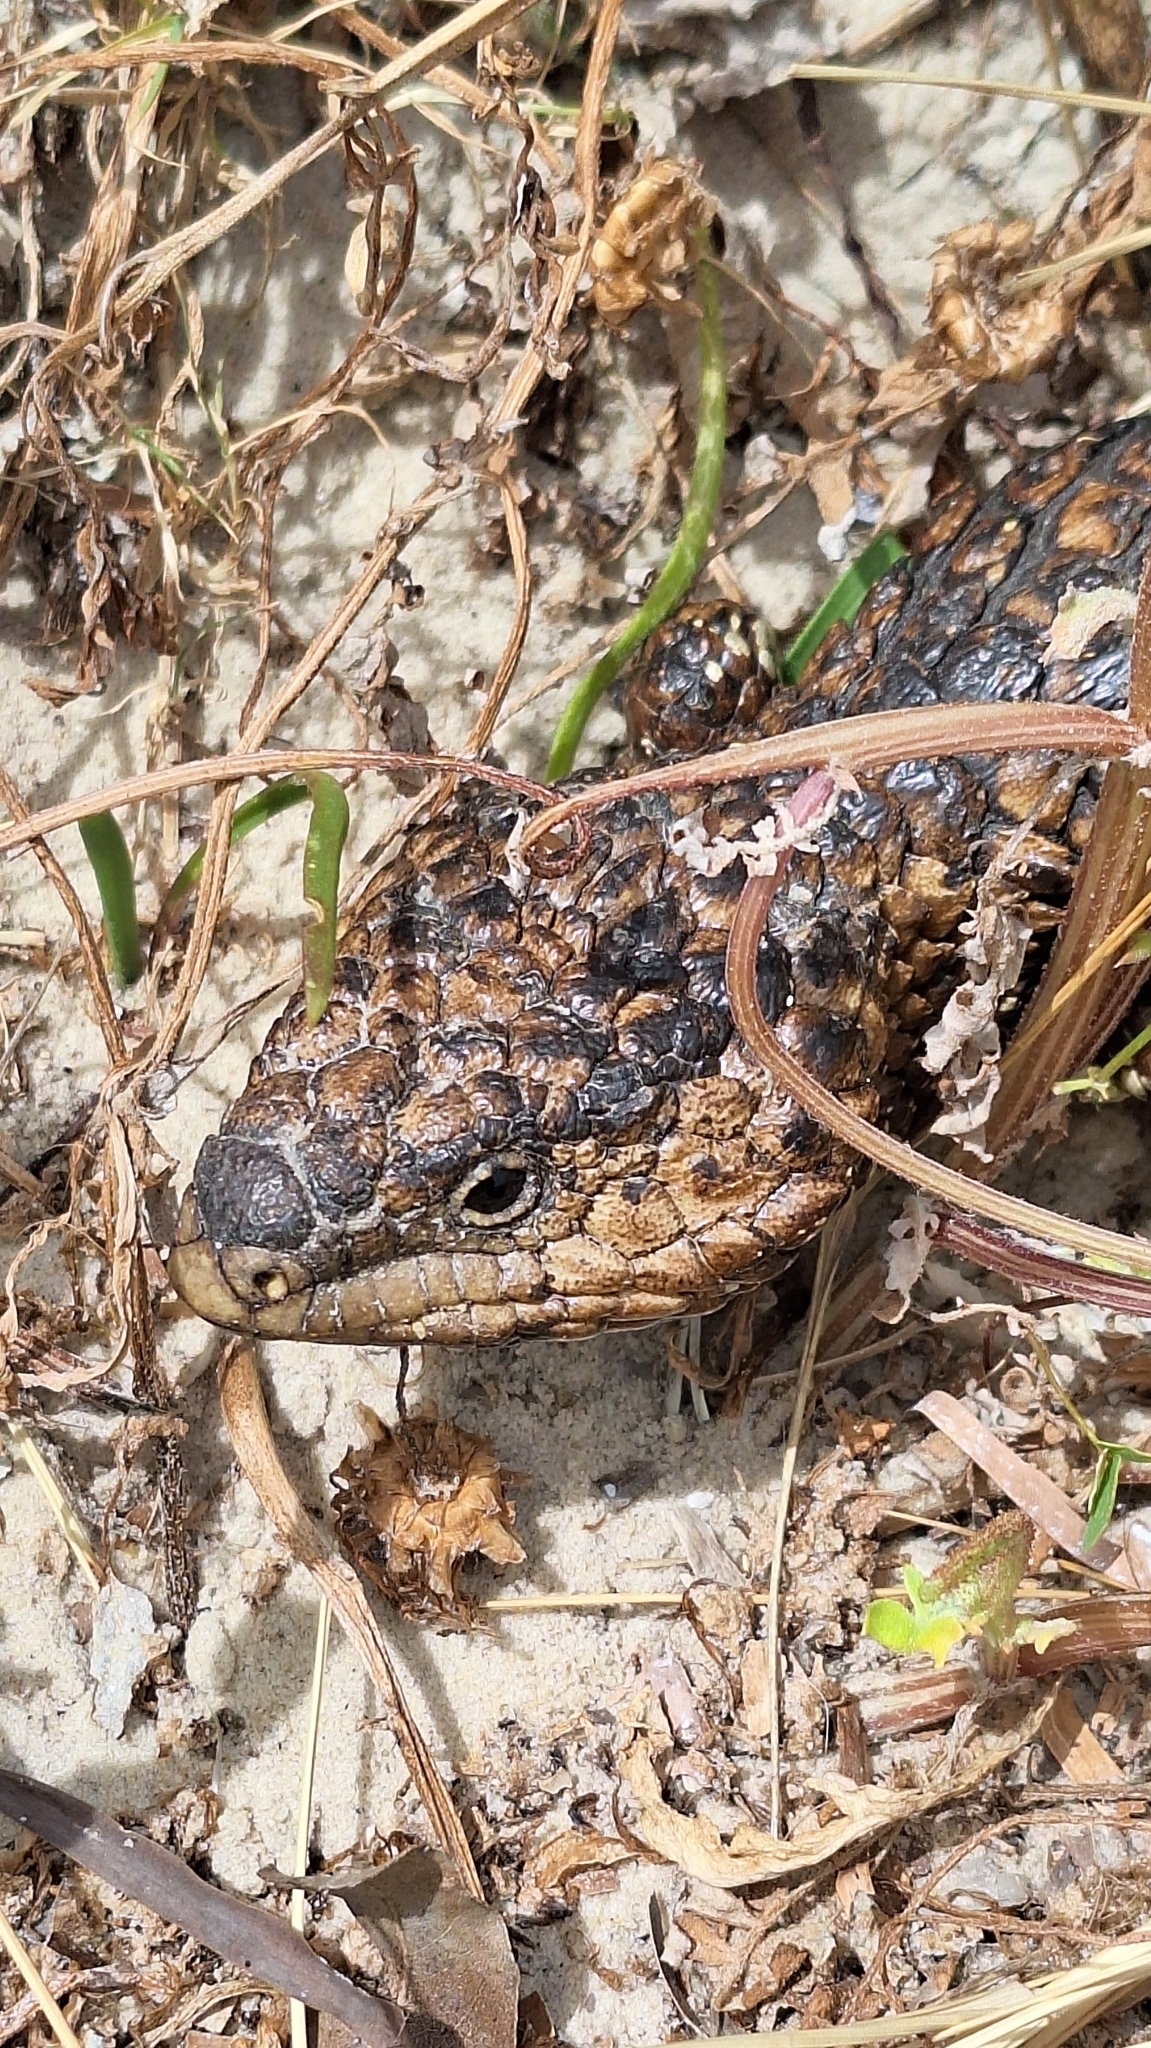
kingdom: Animalia
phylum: Chordata
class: Squamata
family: Scincidae
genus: Tiliqua
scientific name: Tiliqua rugosa
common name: Pinecone lizard
